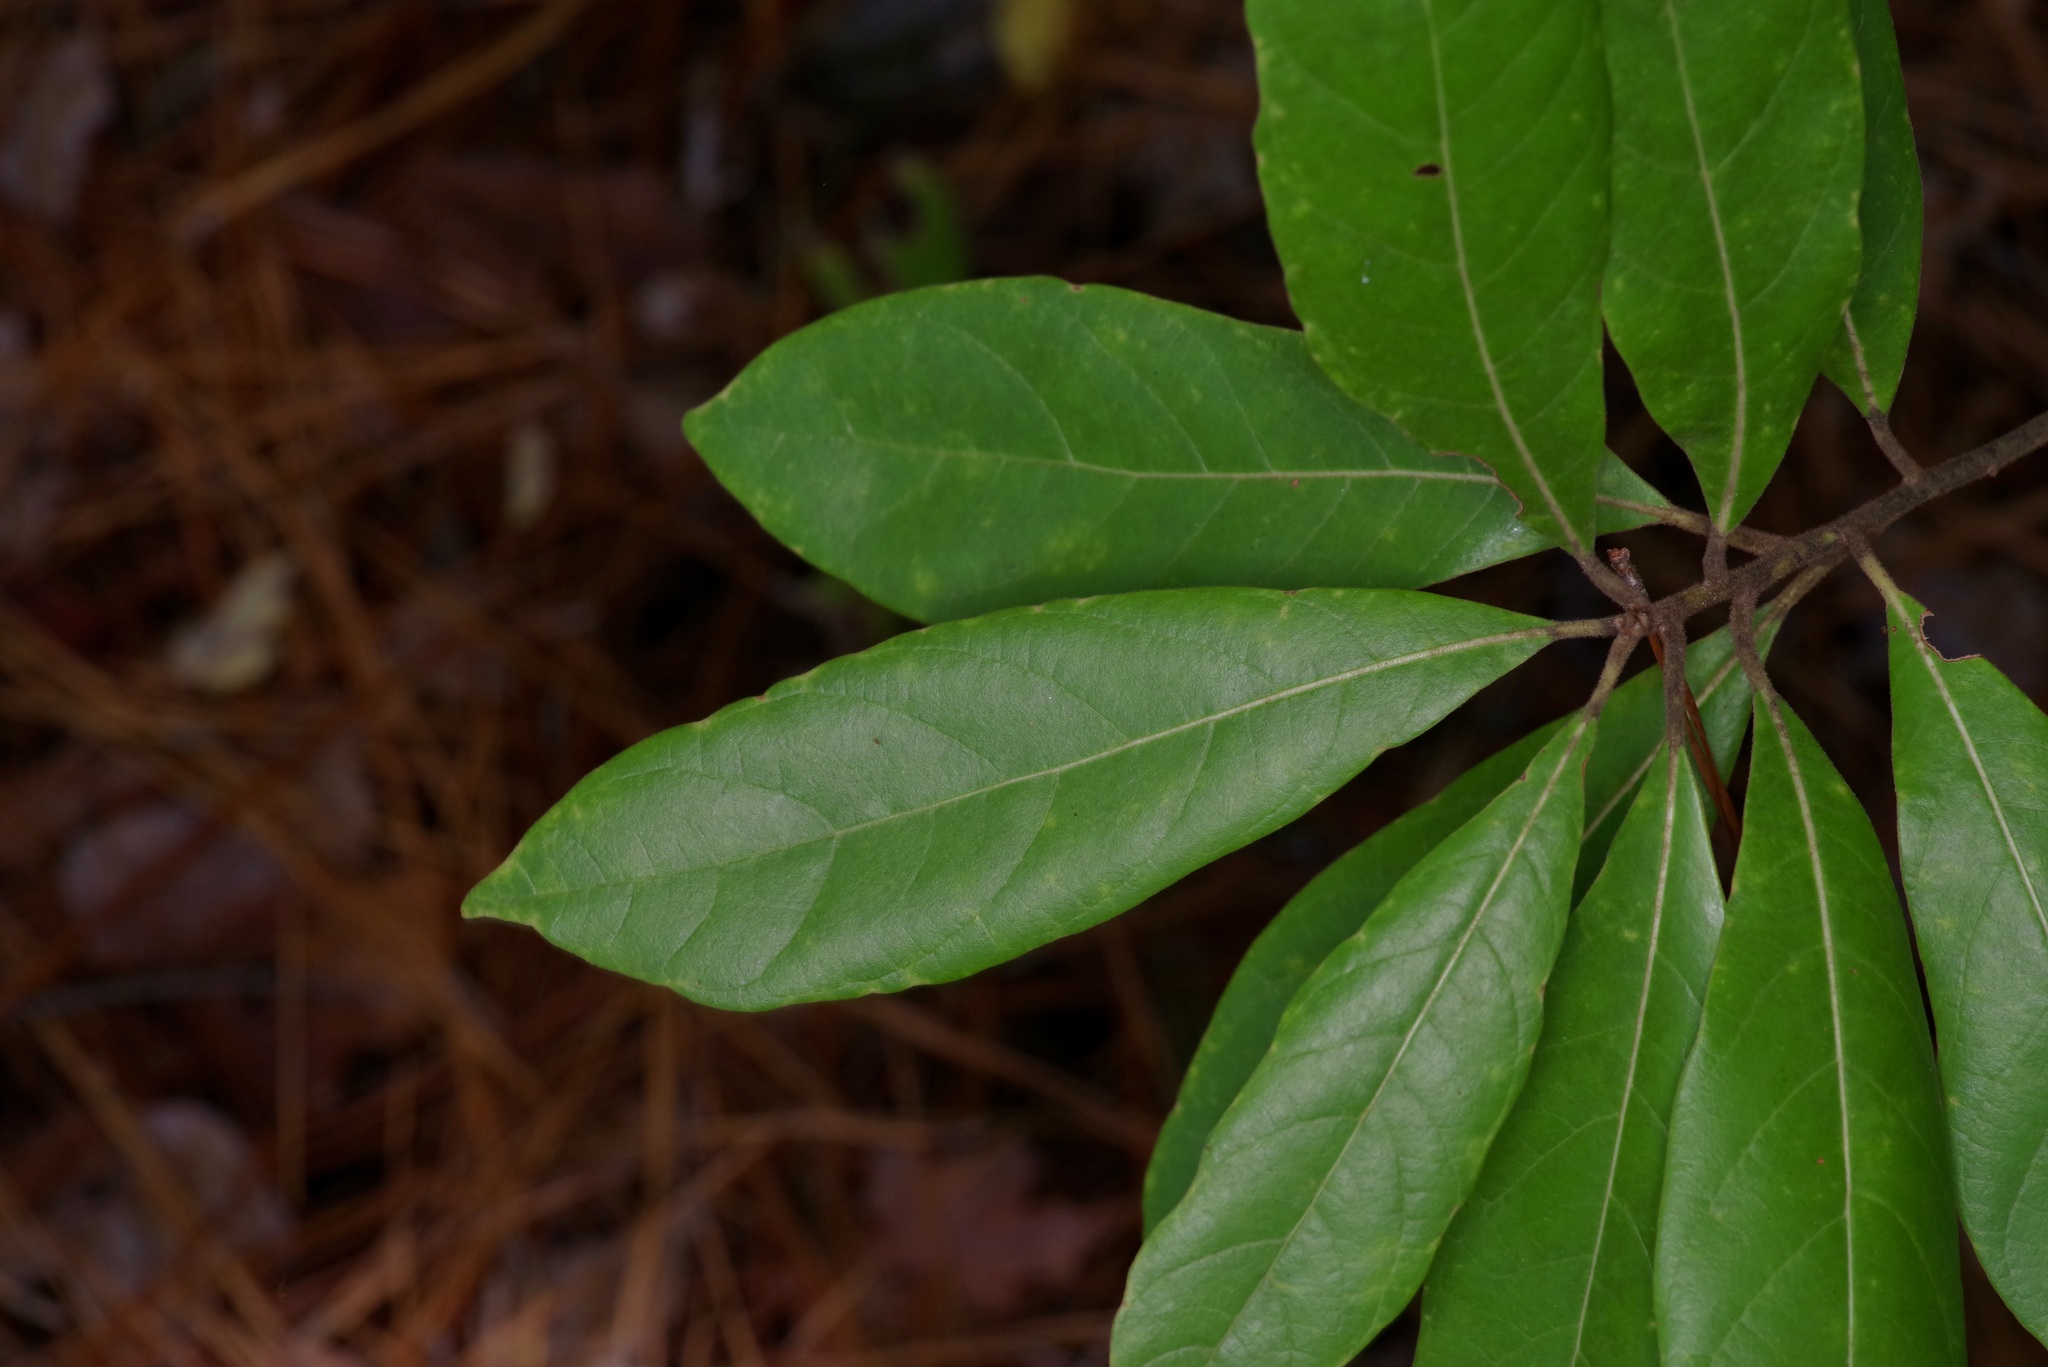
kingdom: Plantae
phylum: Tracheophyta
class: Magnoliopsida
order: Laurales
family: Lauraceae
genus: Persea
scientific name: Persea palustris
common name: Swampbay
